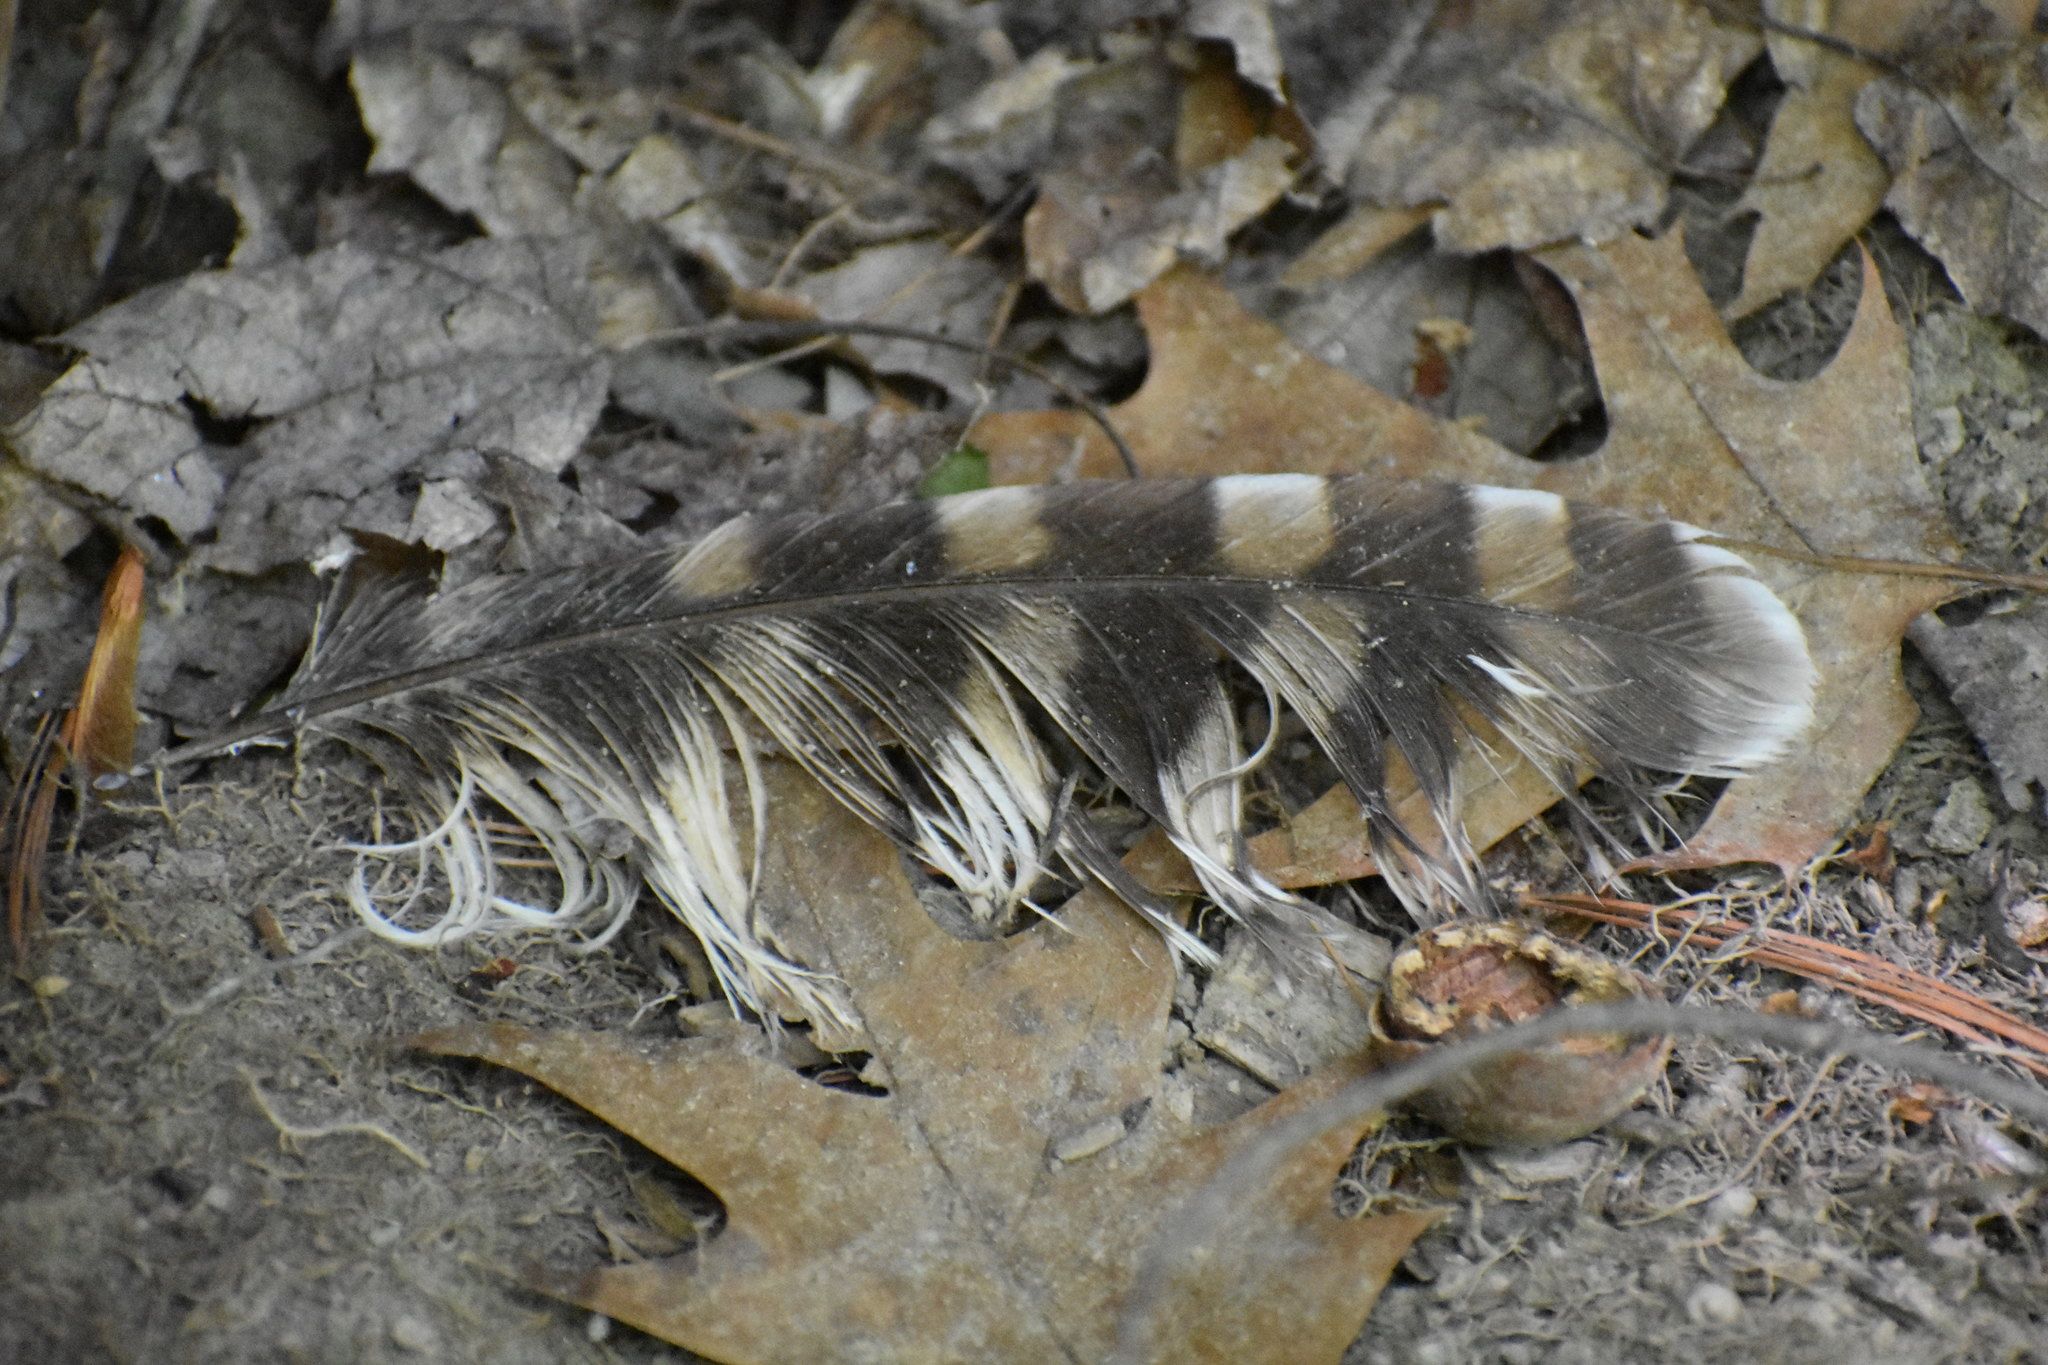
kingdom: Animalia
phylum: Chordata
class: Aves
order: Strigiformes
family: Strigidae
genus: Strix
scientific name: Strix varia
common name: Barred owl
